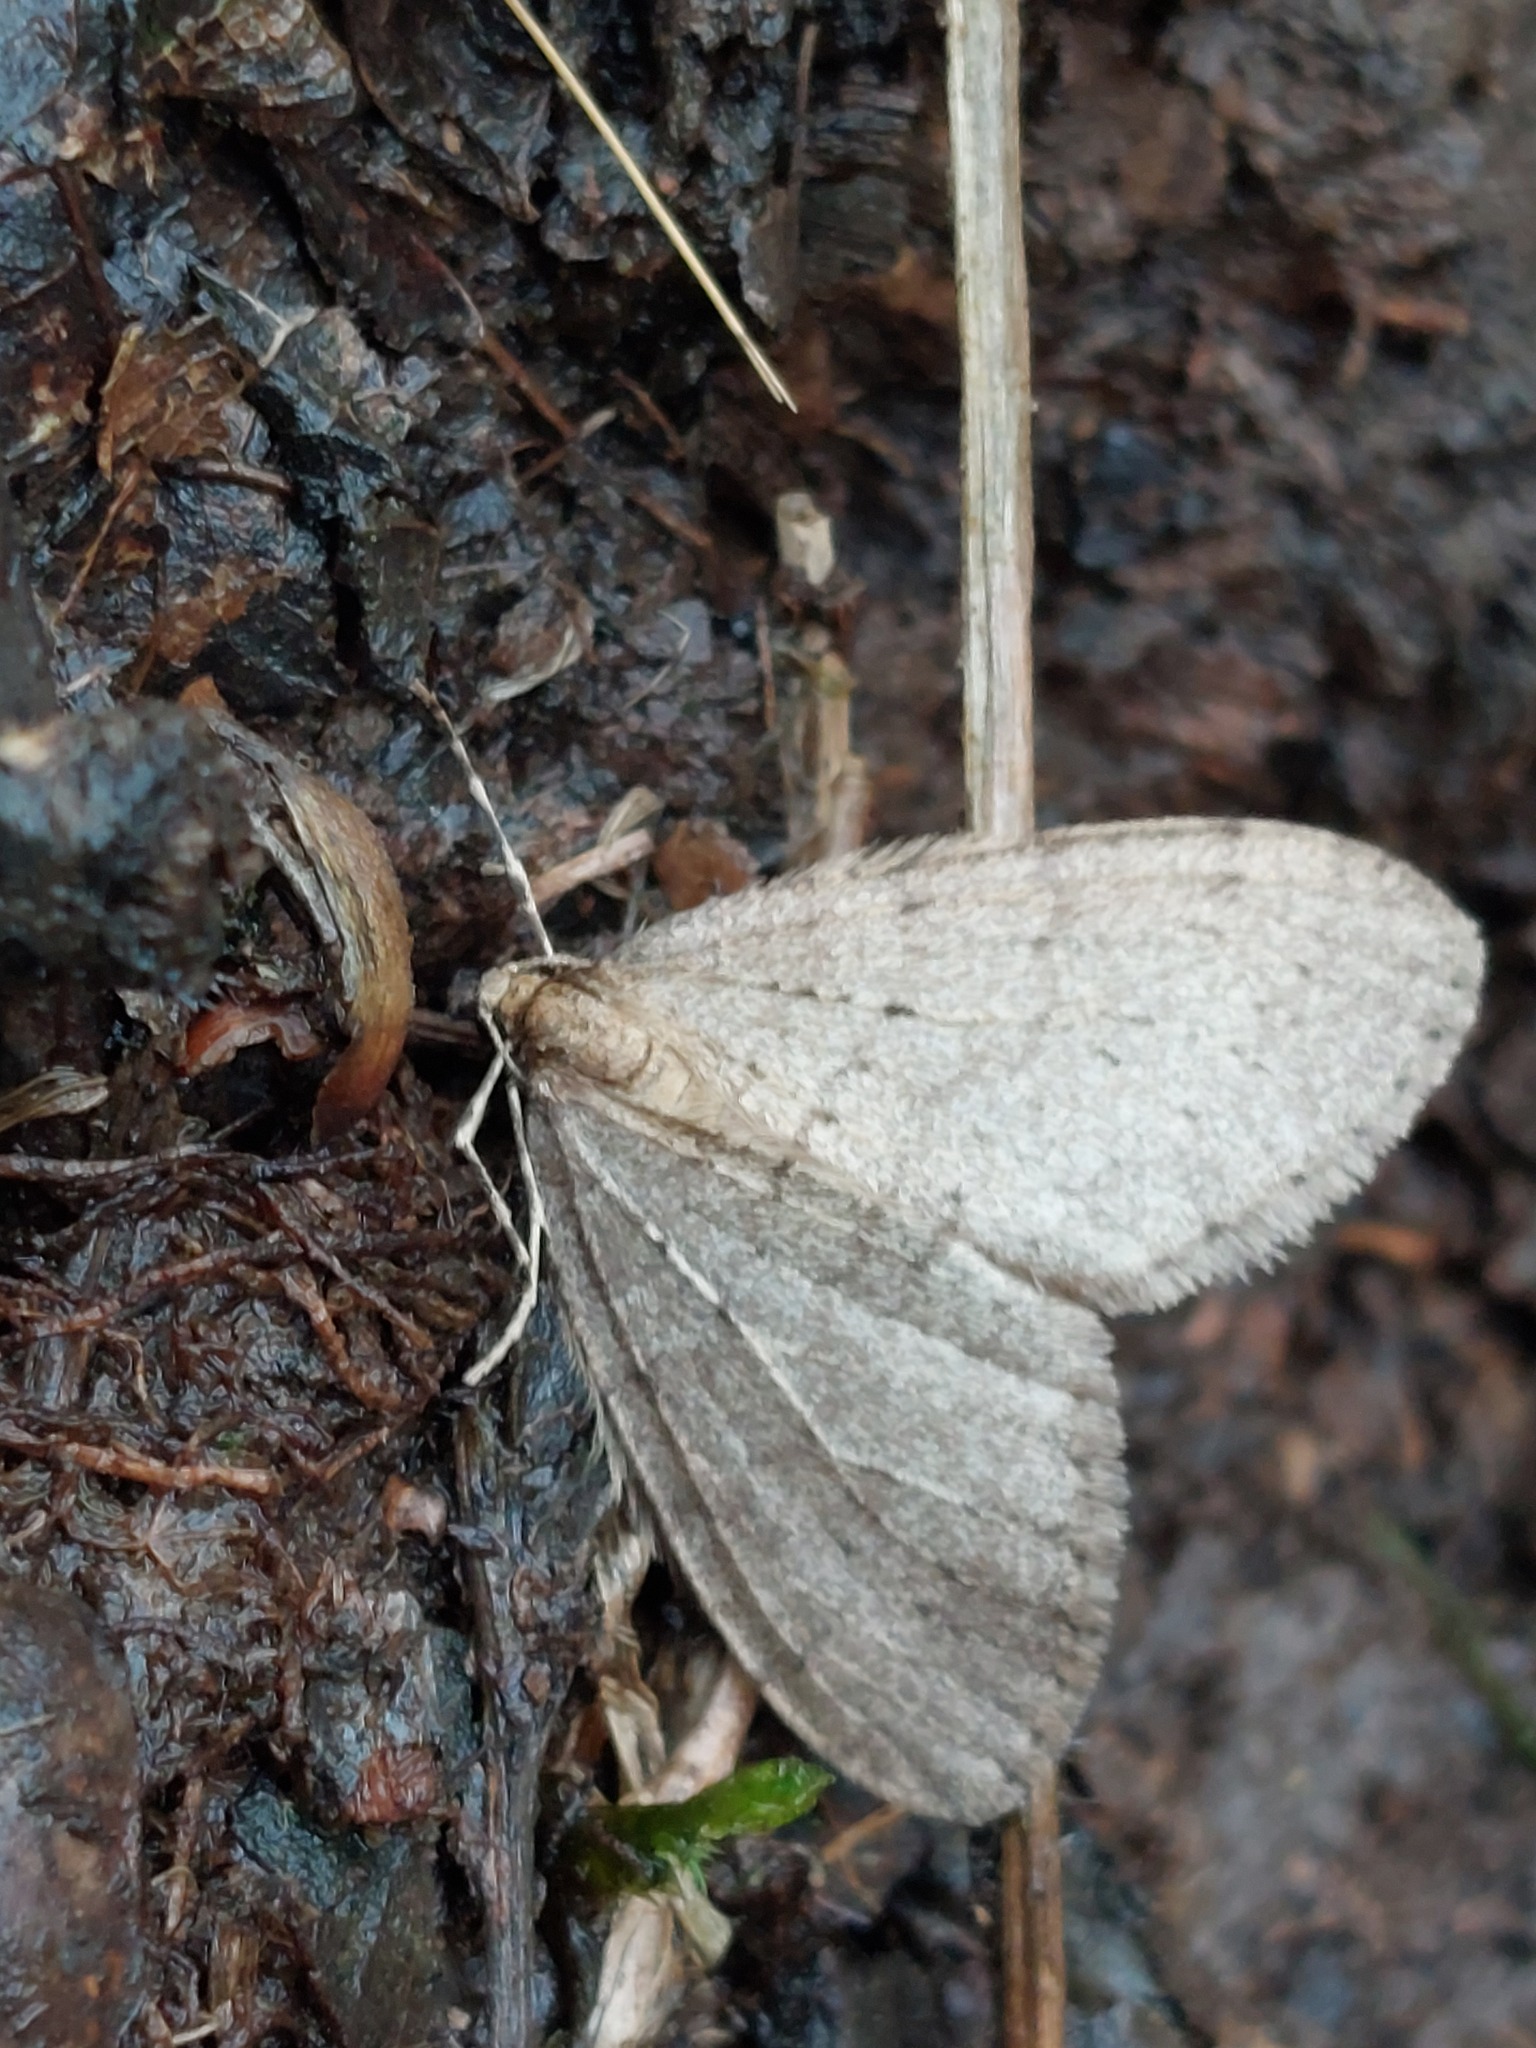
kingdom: Animalia
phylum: Arthropoda
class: Insecta
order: Lepidoptera
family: Geometridae
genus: Operophtera
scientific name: Operophtera brumata
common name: Winter moth
